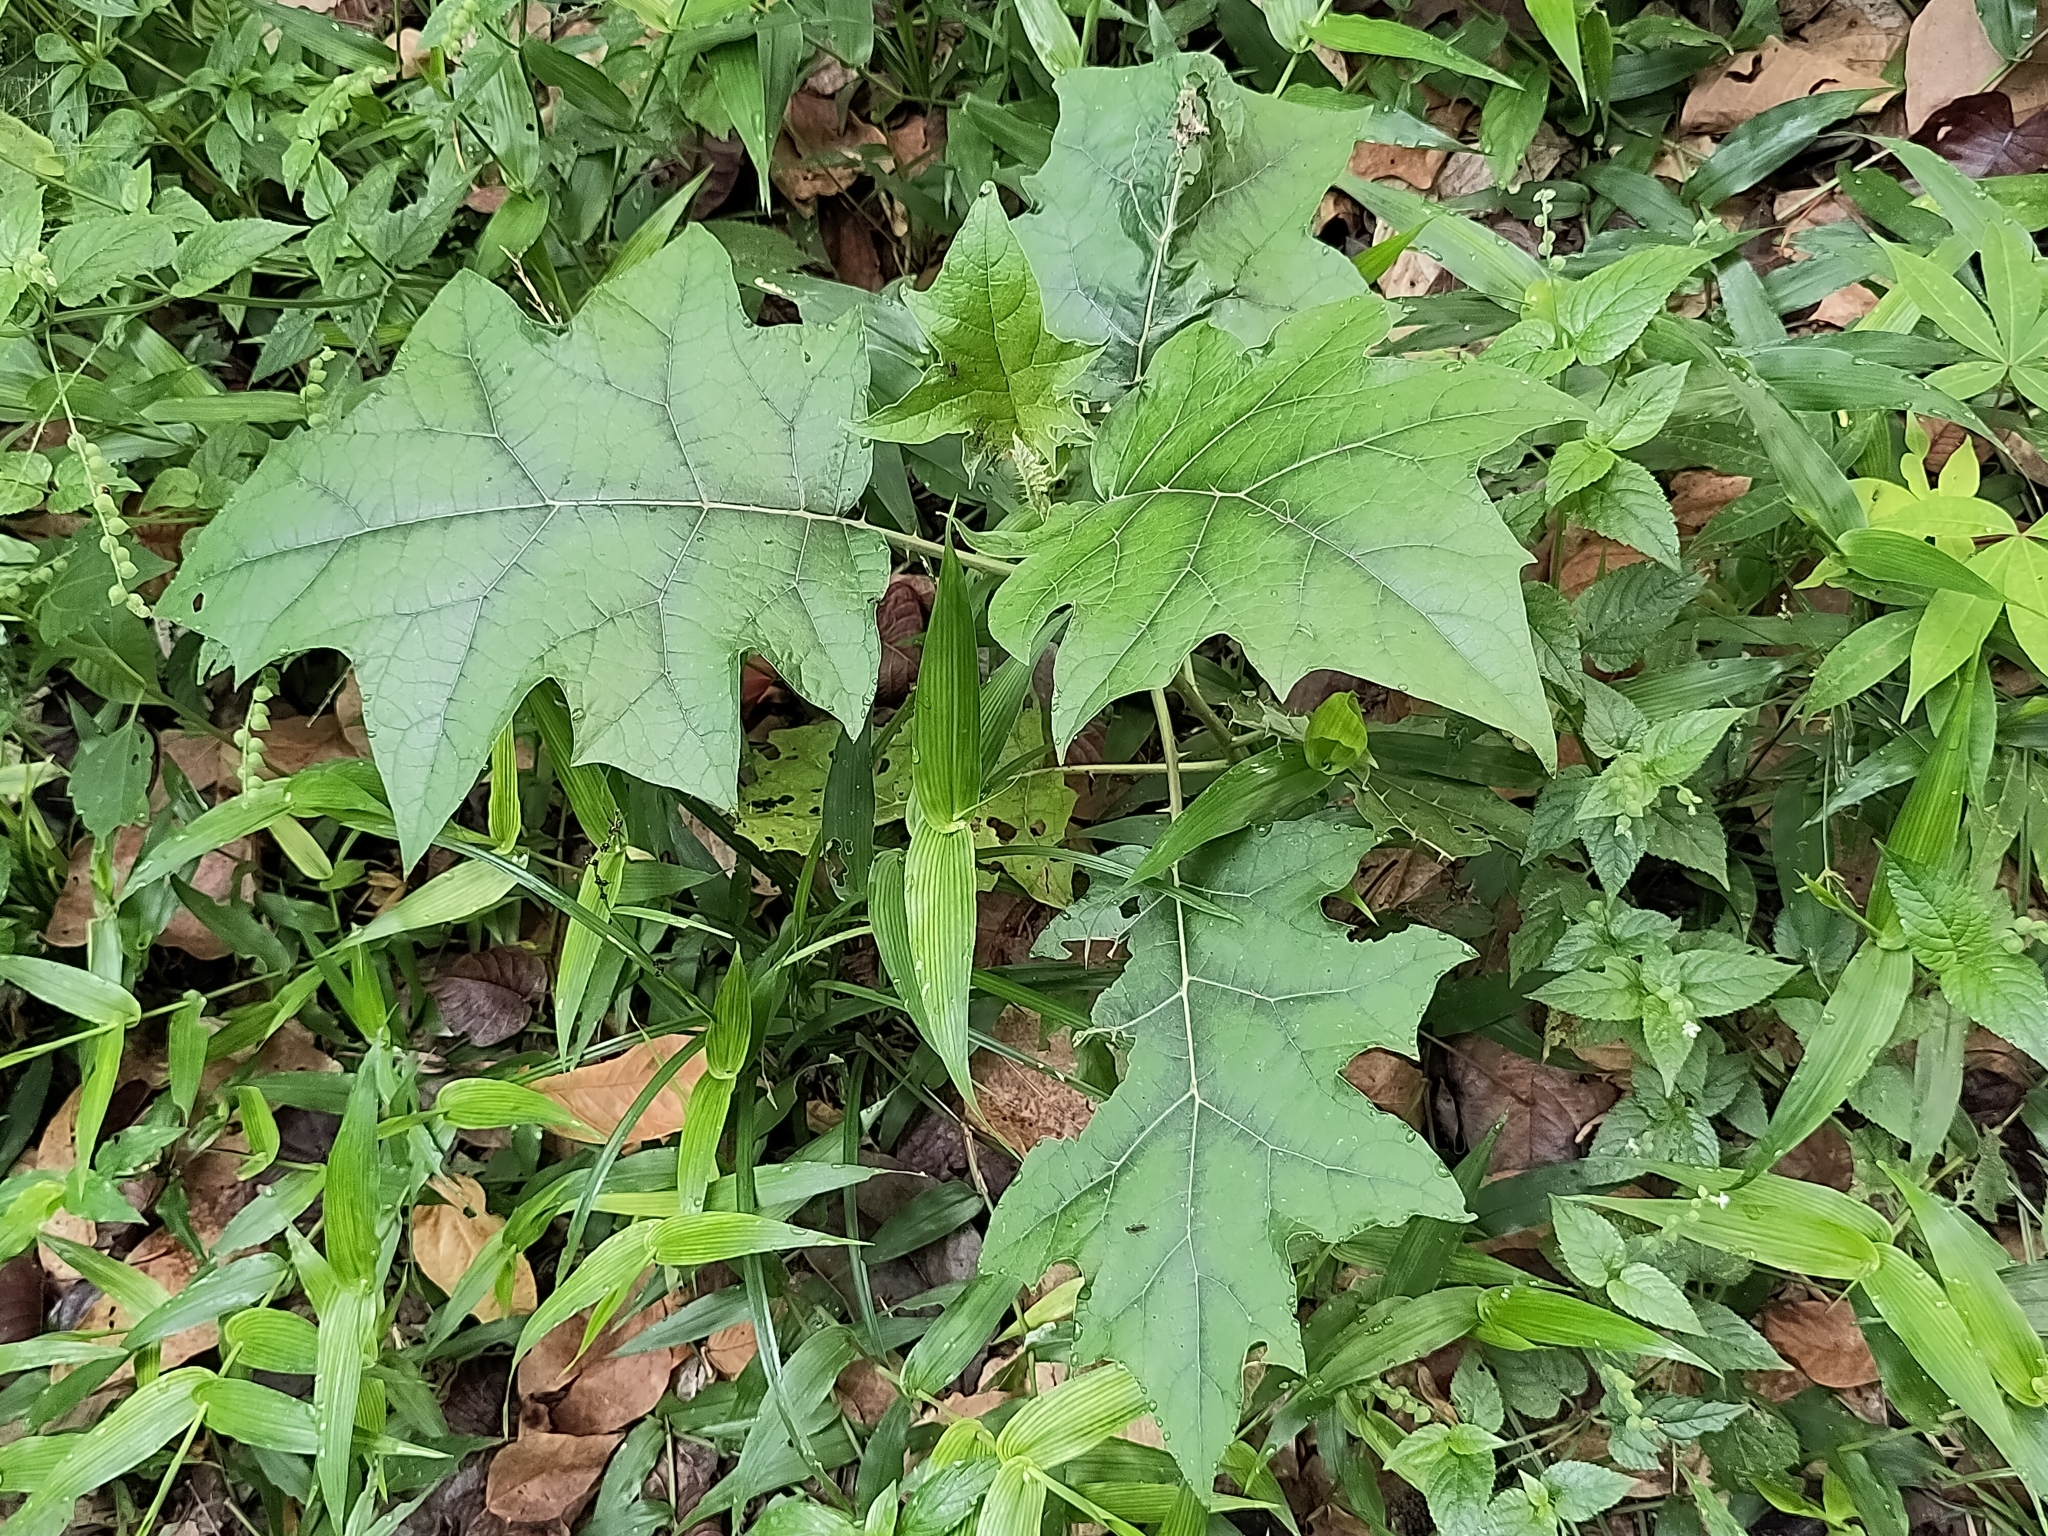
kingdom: Plantae
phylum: Tracheophyta
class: Magnoliopsida
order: Solanales
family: Solanaceae
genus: Solanum
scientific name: Solanum
